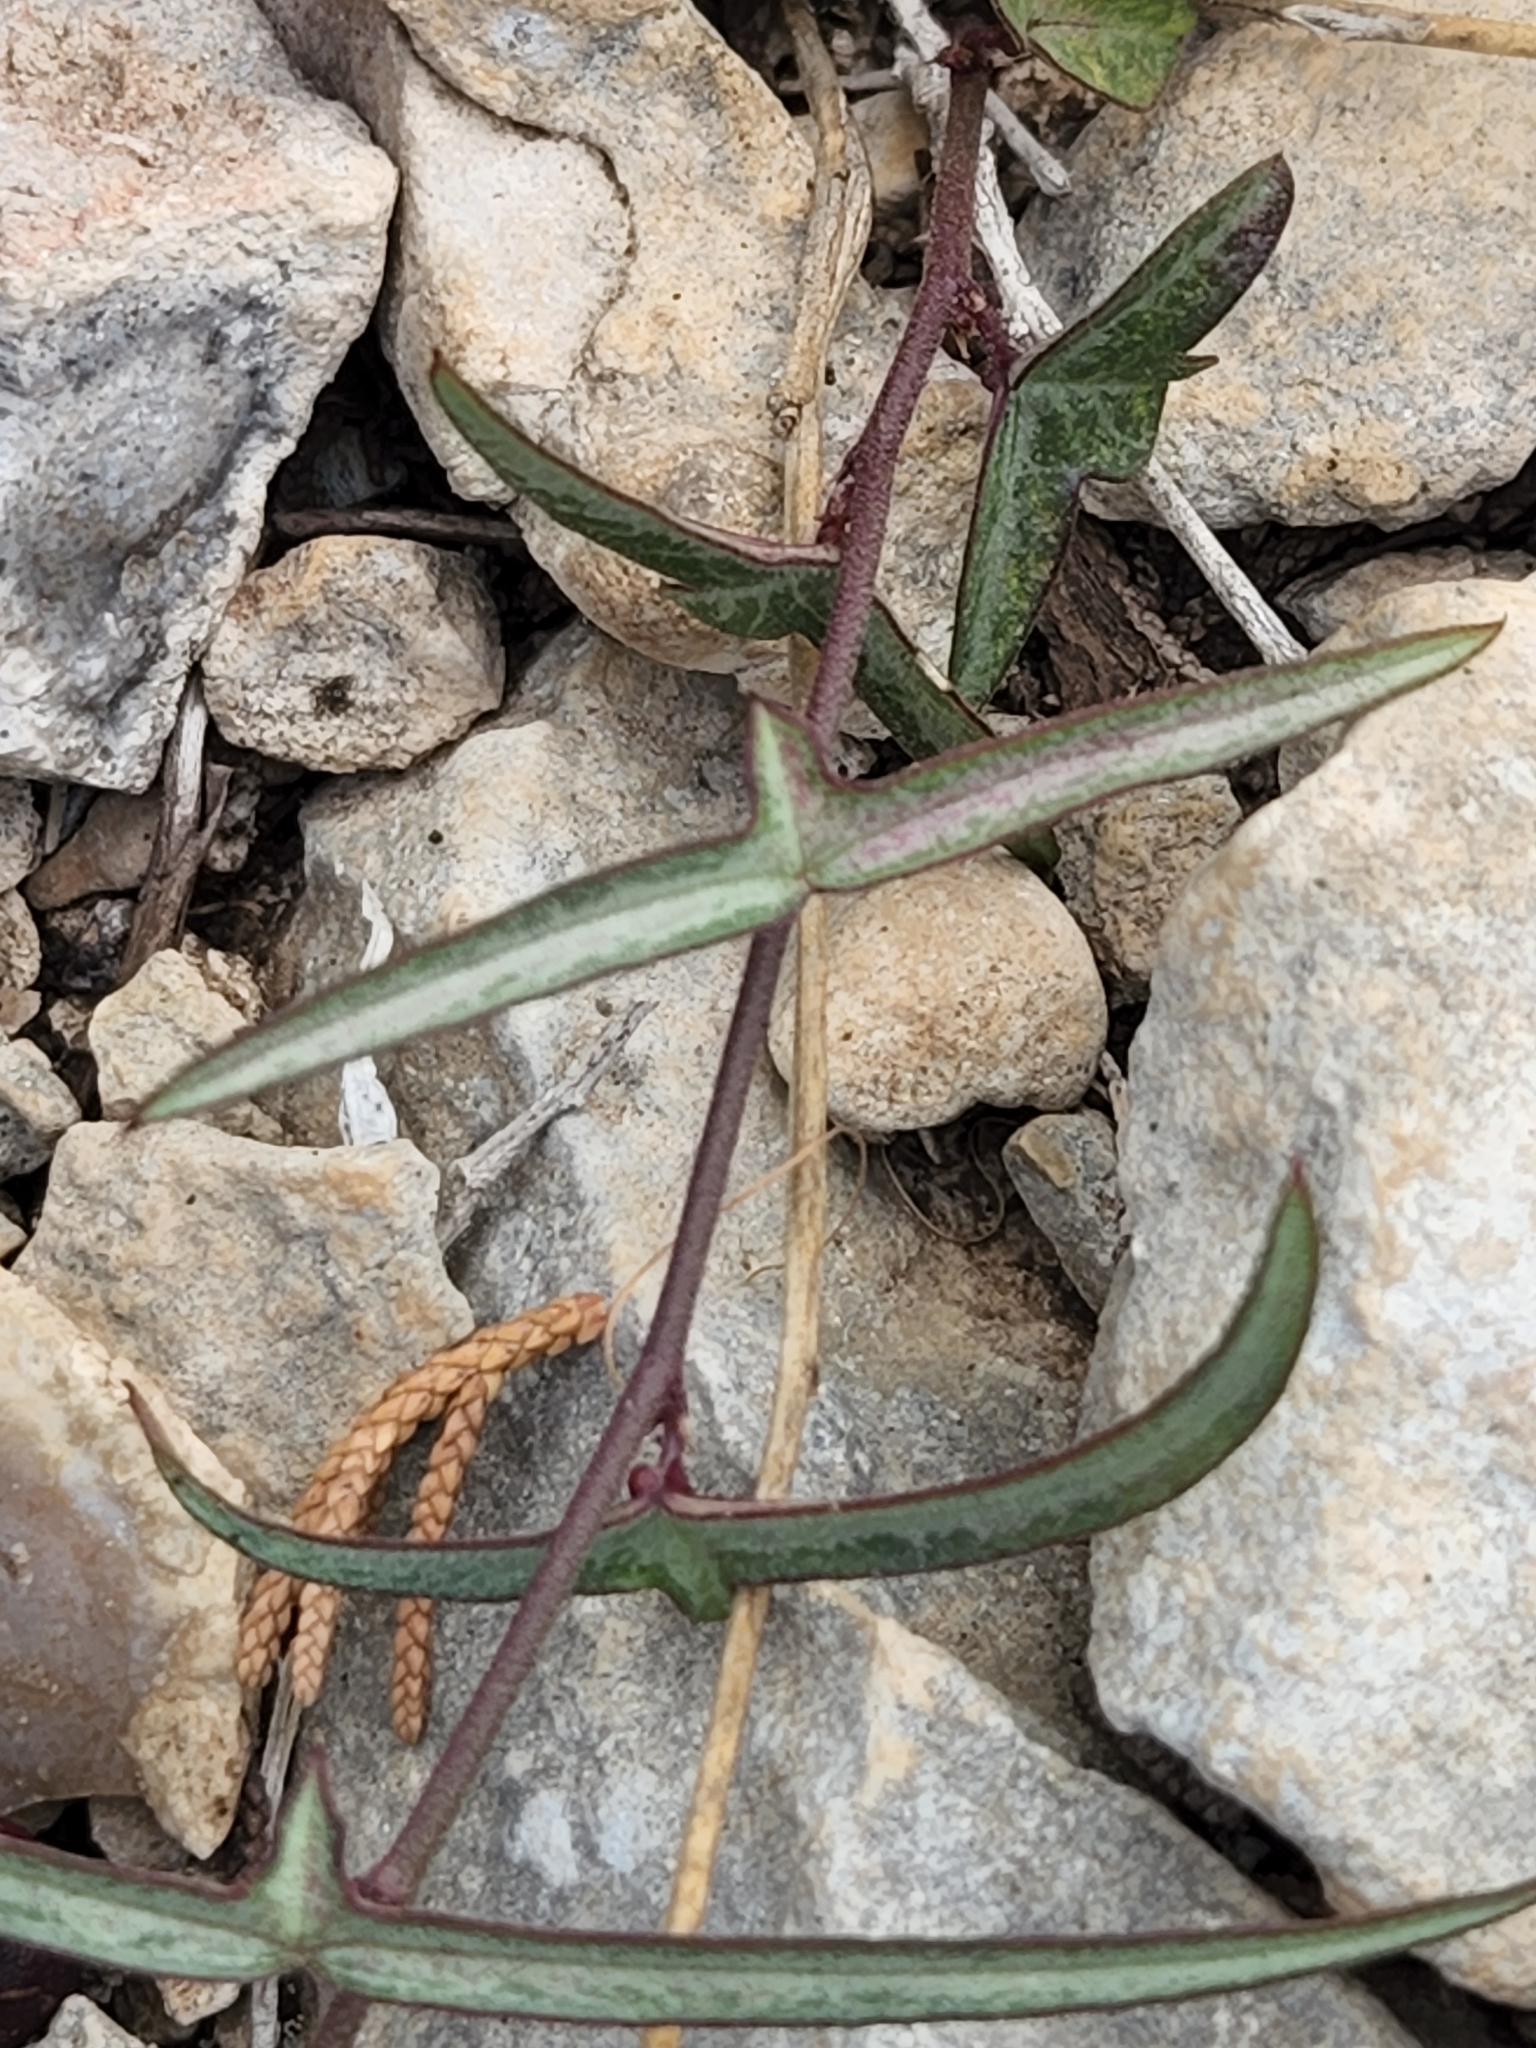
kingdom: Plantae
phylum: Tracheophyta
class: Magnoliopsida
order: Malpighiales
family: Passifloraceae
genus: Passiflora
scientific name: Passiflora tenuiloba
